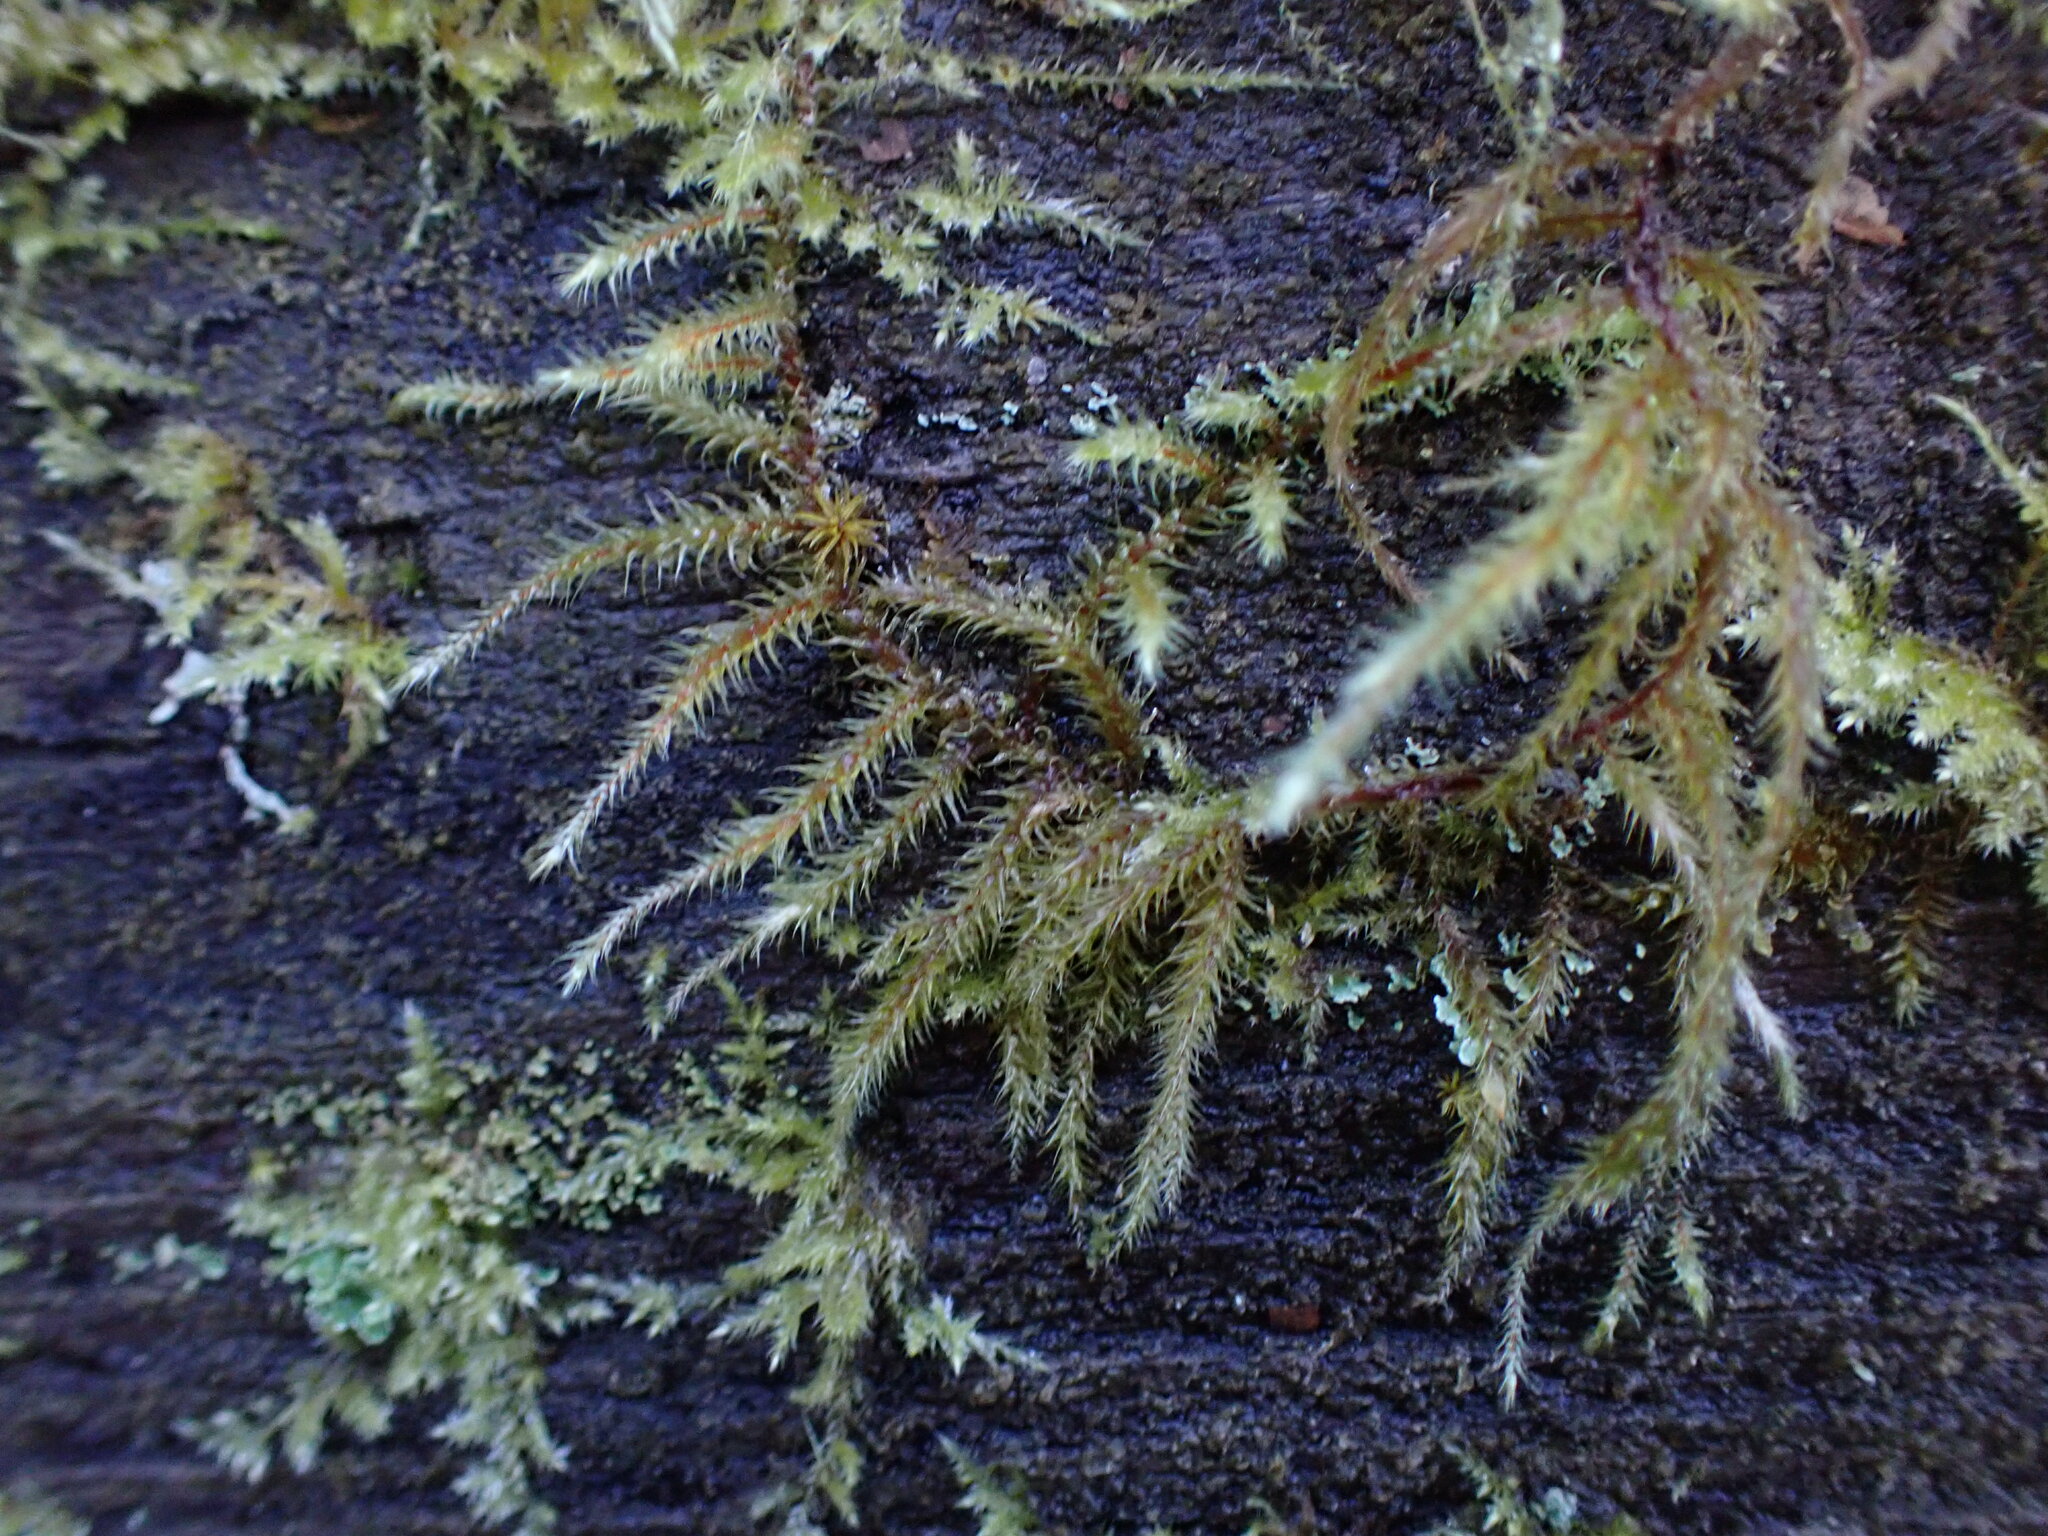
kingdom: Plantae
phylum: Bryophyta
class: Bryopsida
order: Hypnales
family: Hylocomiaceae
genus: Rhytidiadelphus
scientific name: Rhytidiadelphus loreus
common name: Lanky moss
